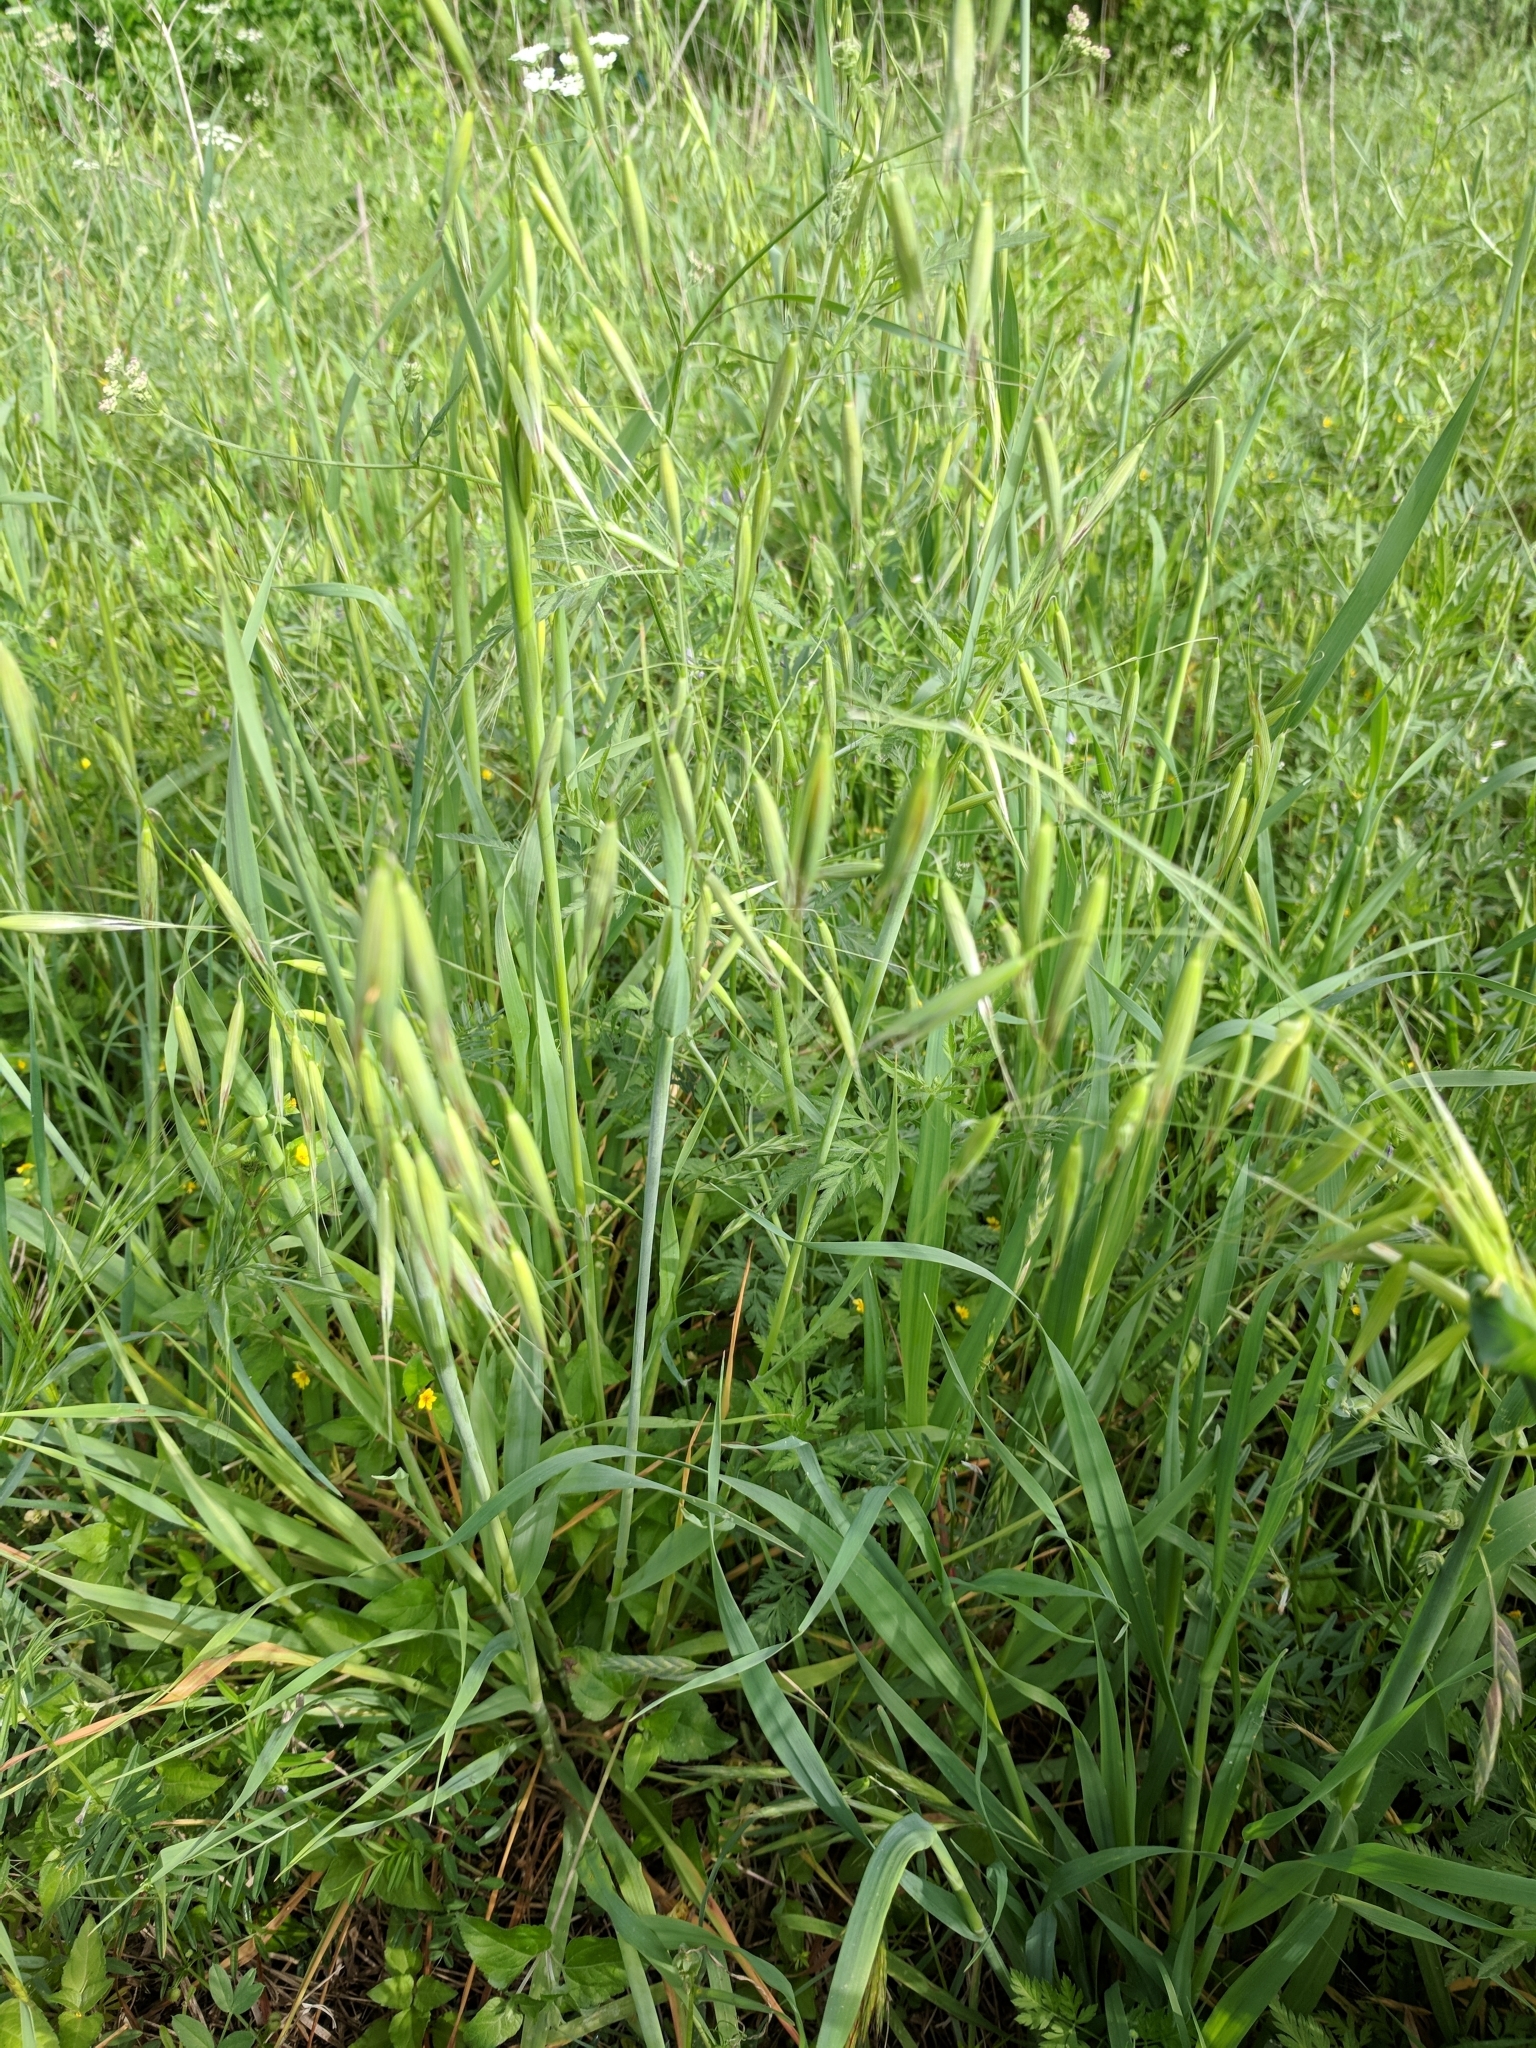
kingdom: Plantae
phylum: Tracheophyta
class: Liliopsida
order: Poales
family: Poaceae
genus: Avena
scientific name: Avena fatua
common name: Wild oat
